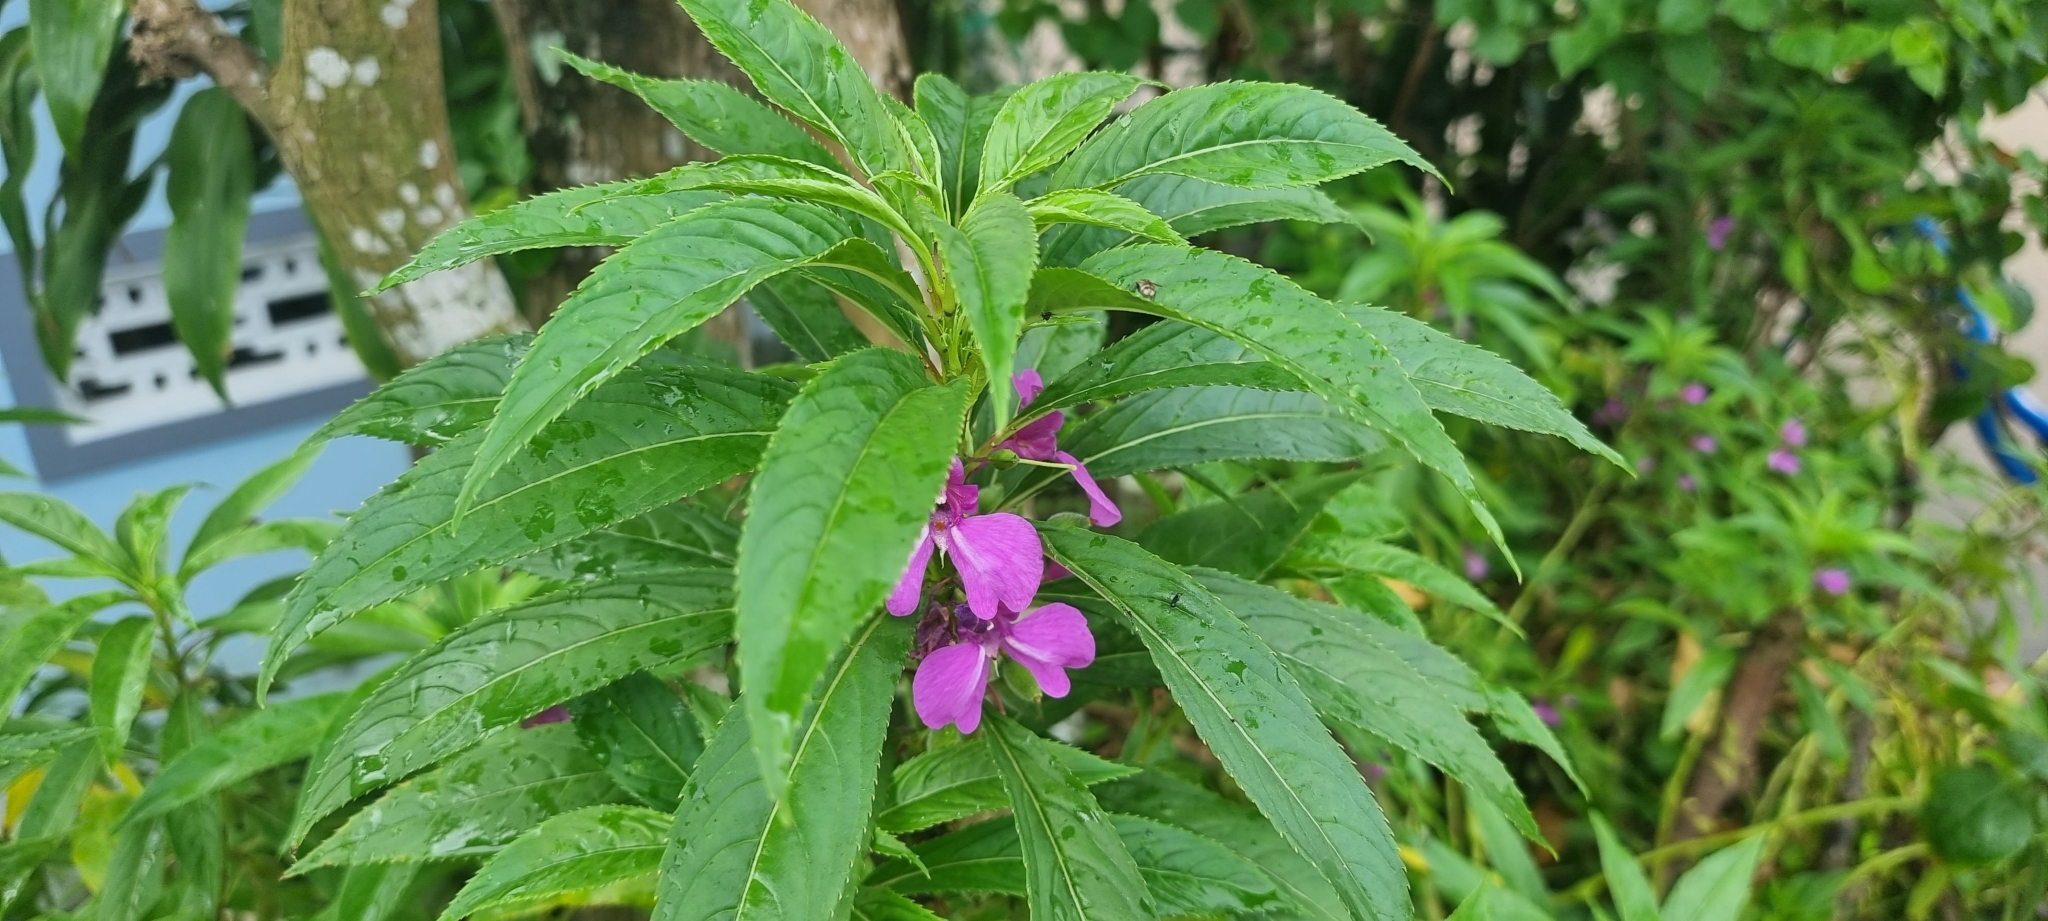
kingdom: Plantae
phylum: Tracheophyta
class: Magnoliopsida
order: Ericales
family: Balsaminaceae
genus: Impatiens
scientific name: Impatiens balsamina
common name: Balsam
